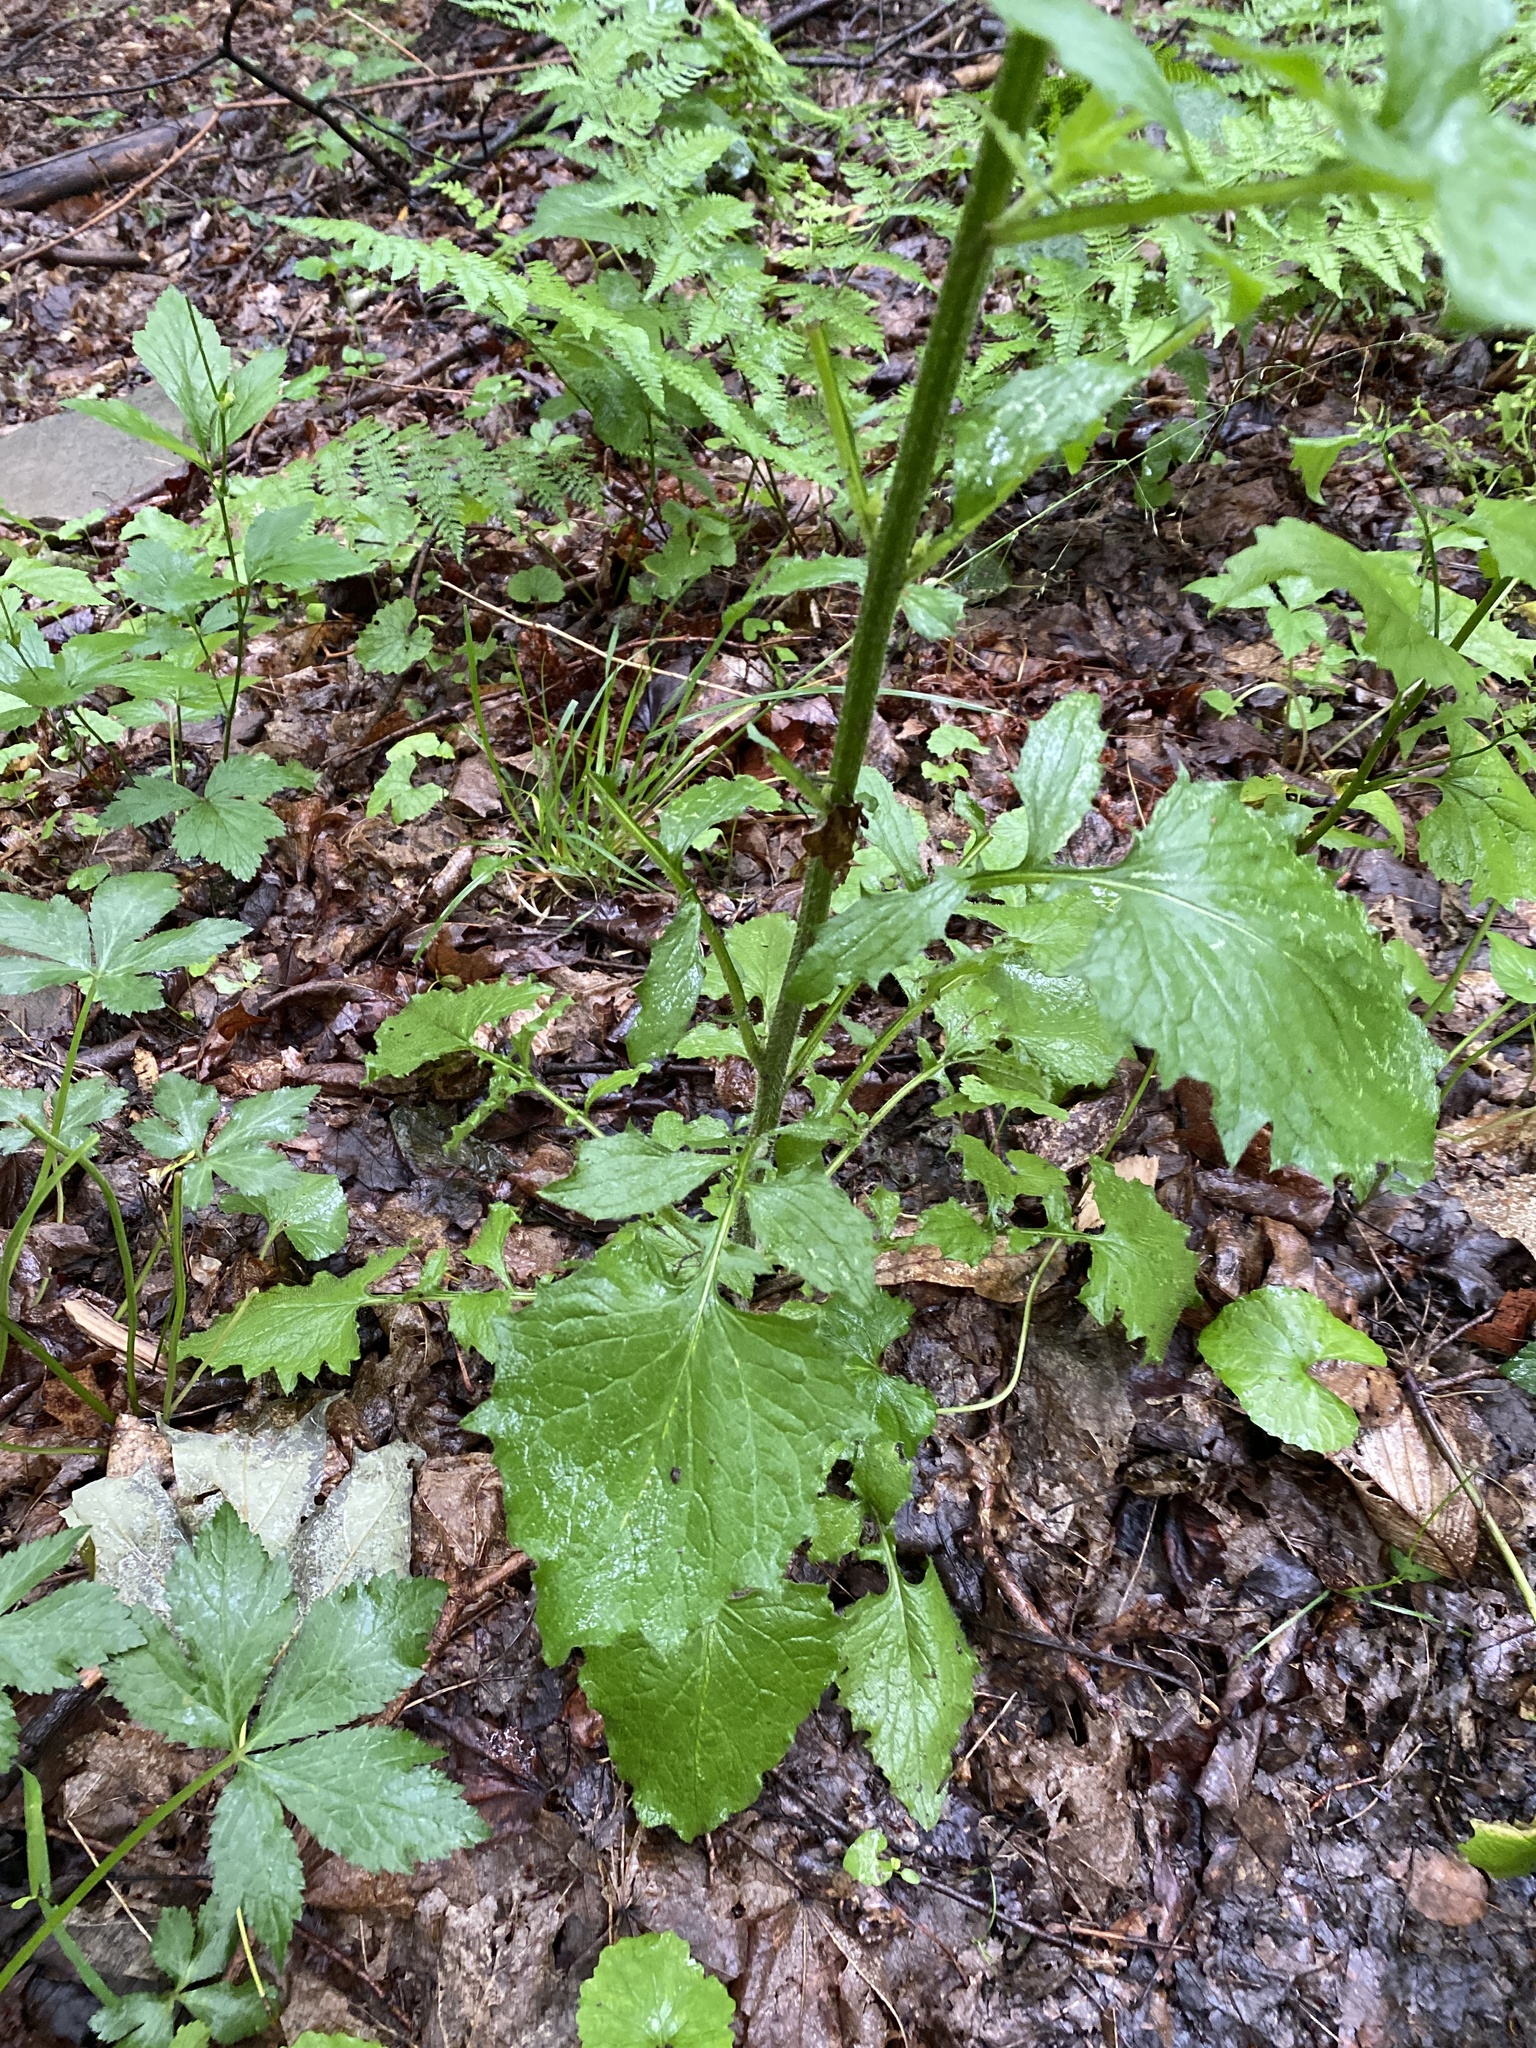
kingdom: Plantae
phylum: Tracheophyta
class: Magnoliopsida
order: Asterales
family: Asteraceae
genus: Lapsana
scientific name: Lapsana communis
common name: Nipplewort
